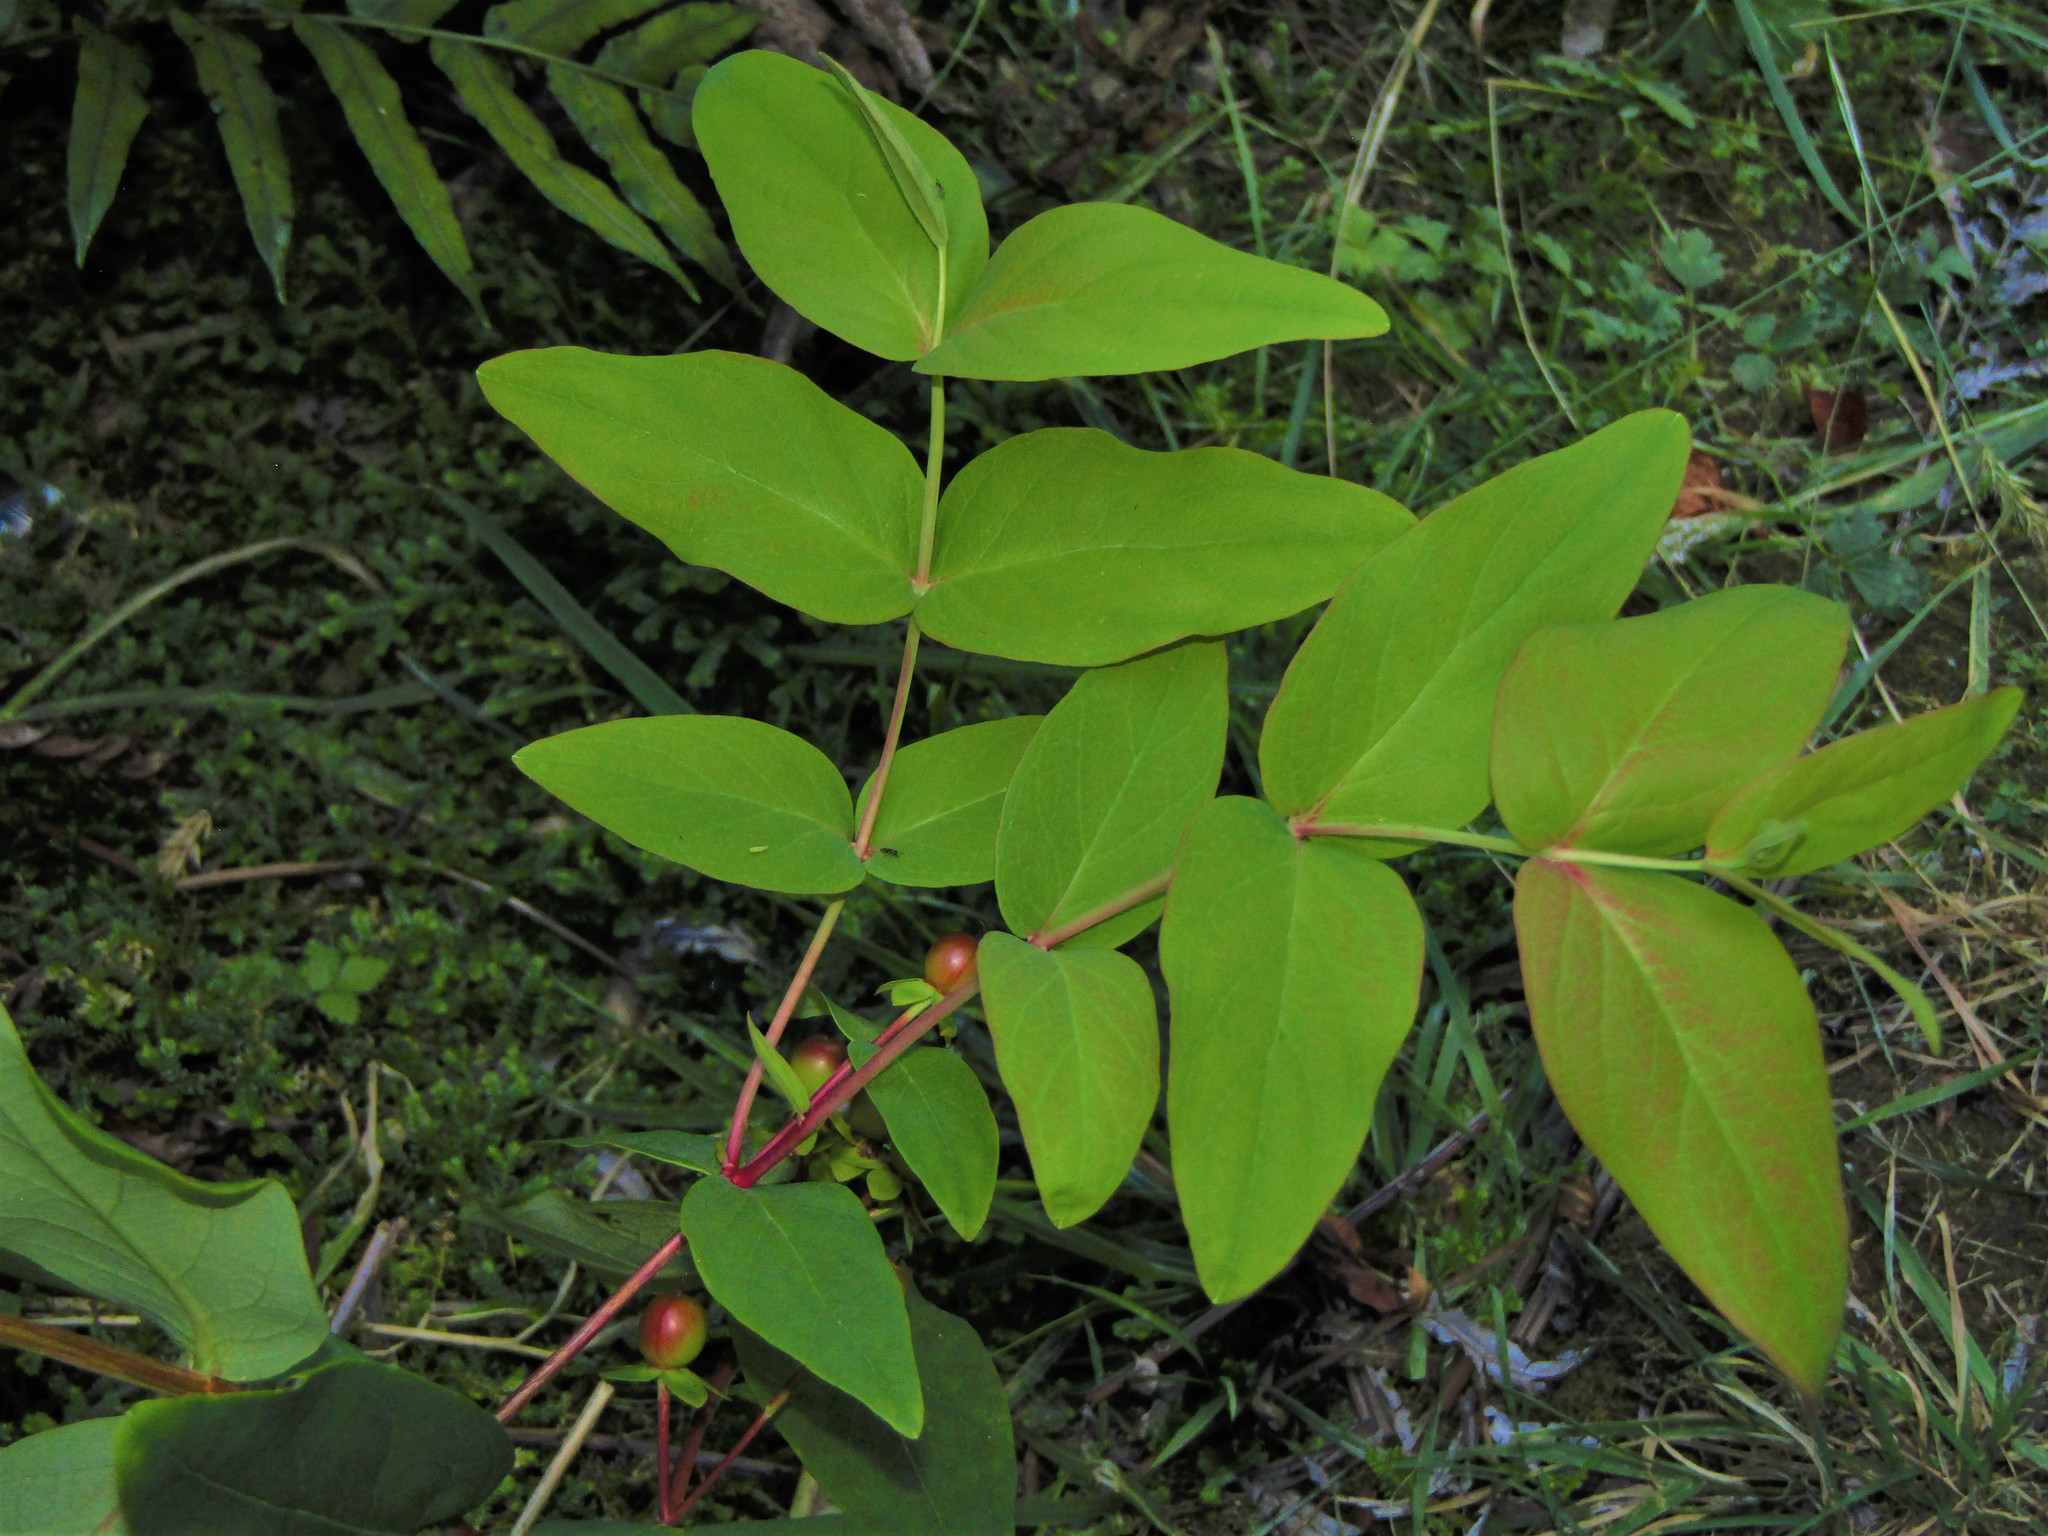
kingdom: Plantae
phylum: Tracheophyta
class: Magnoliopsida
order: Malpighiales
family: Hypericaceae
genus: Hypericum
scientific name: Hypericum androsaemum
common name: Sweet-amber
